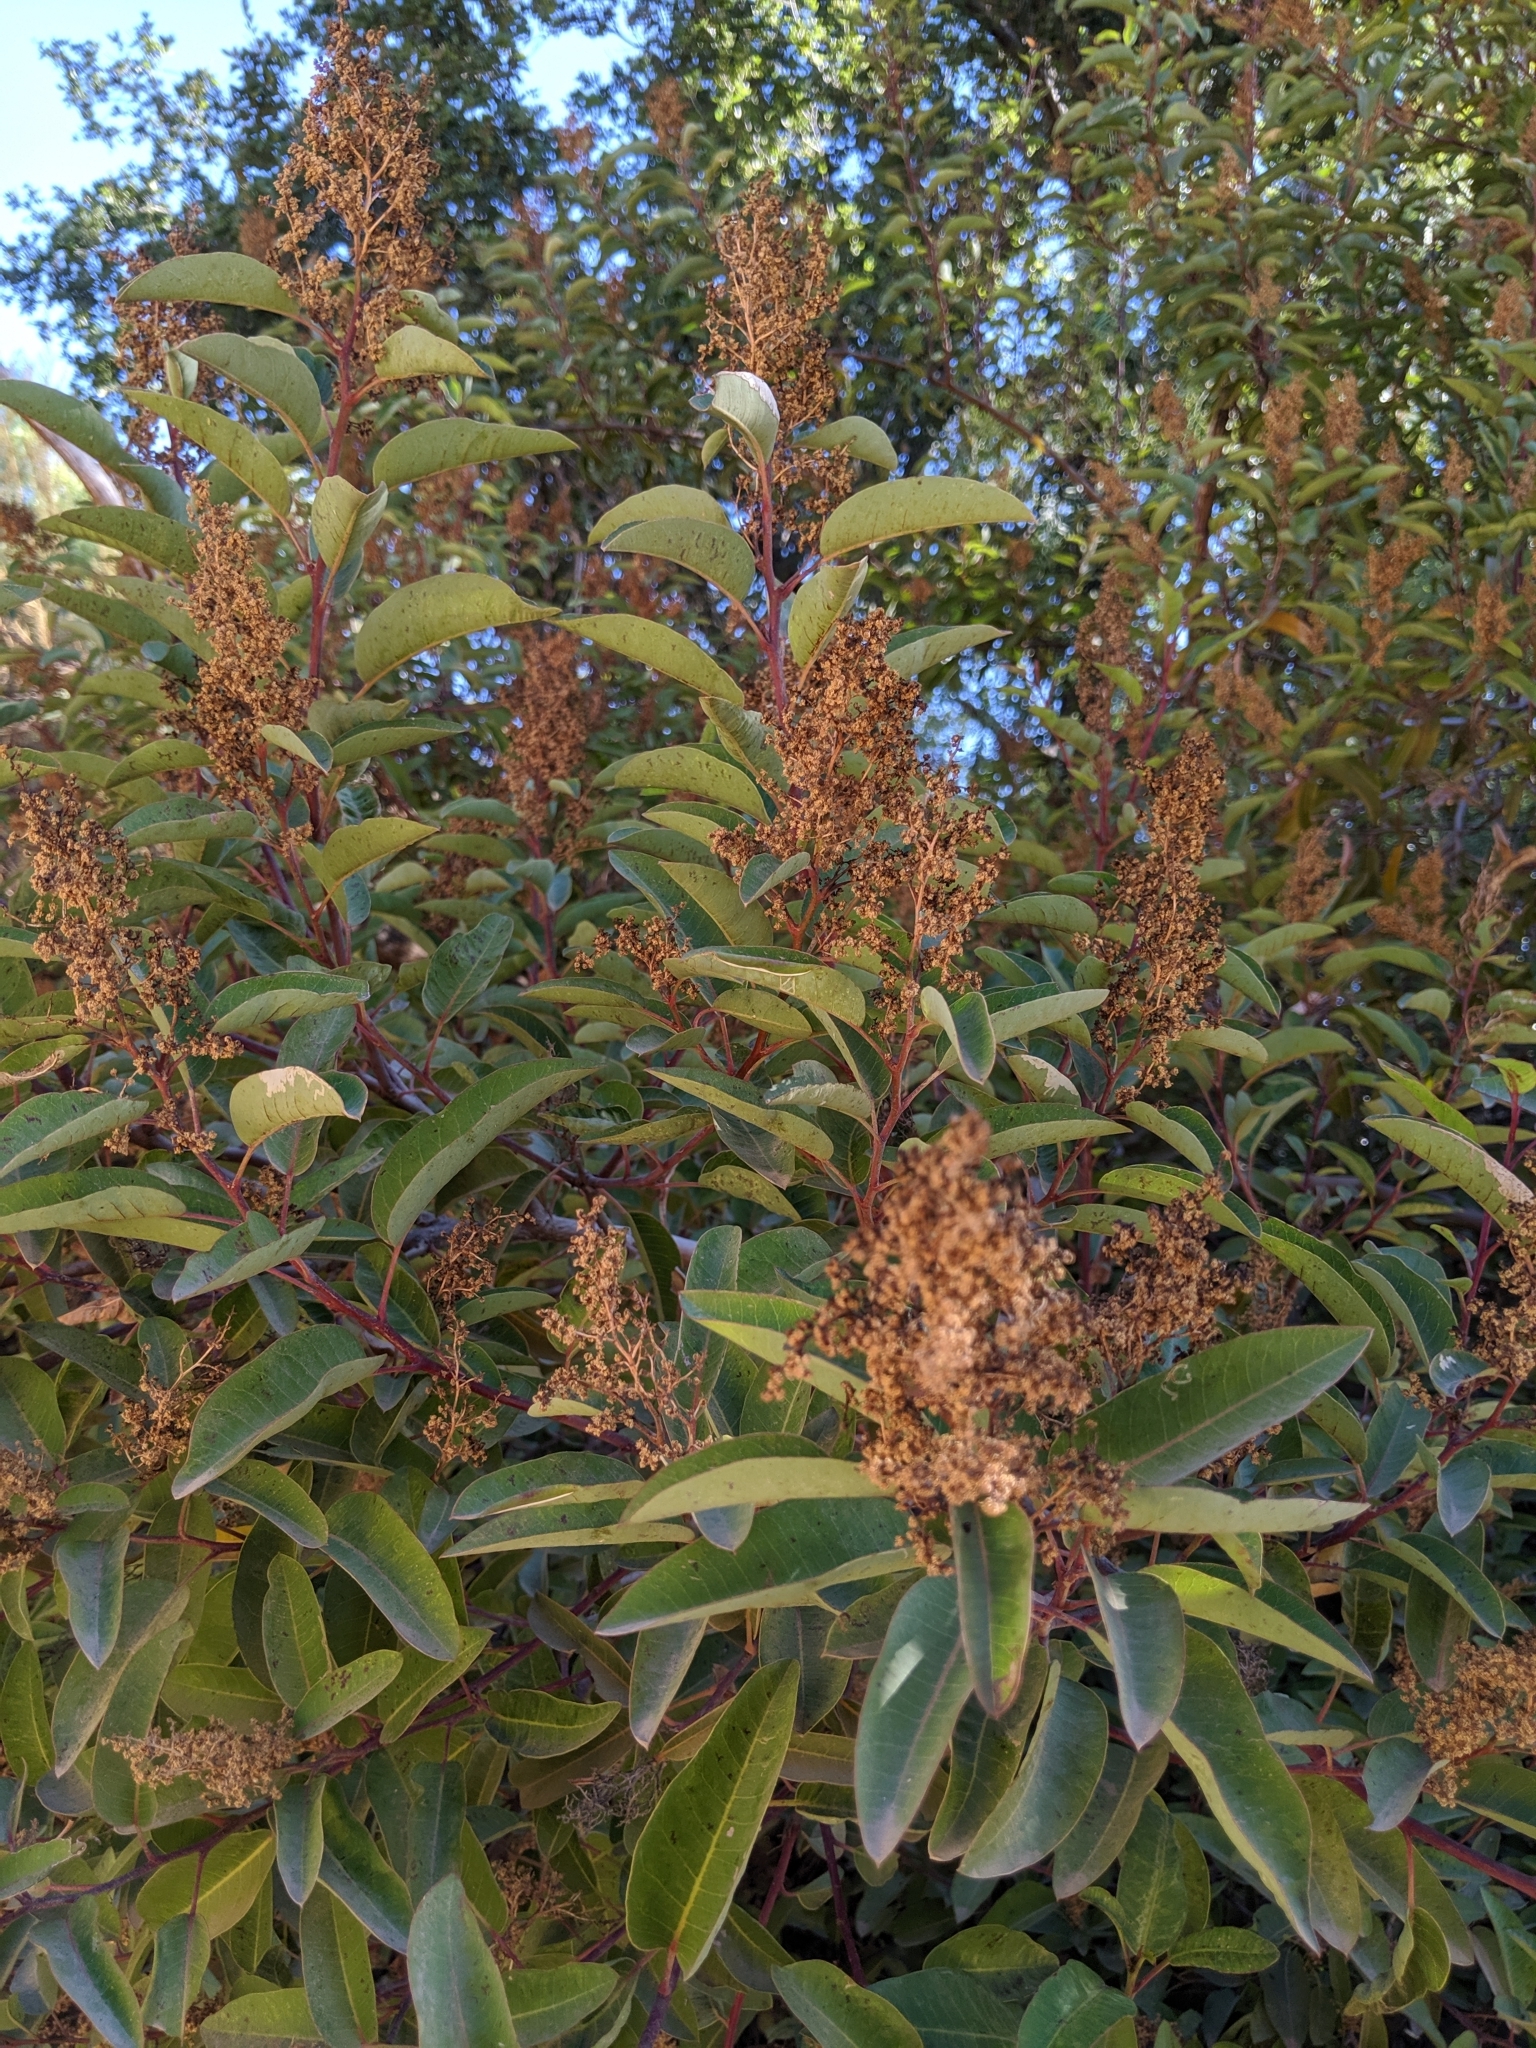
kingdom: Plantae
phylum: Tracheophyta
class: Magnoliopsida
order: Sapindales
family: Anacardiaceae
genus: Malosma
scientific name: Malosma laurina
